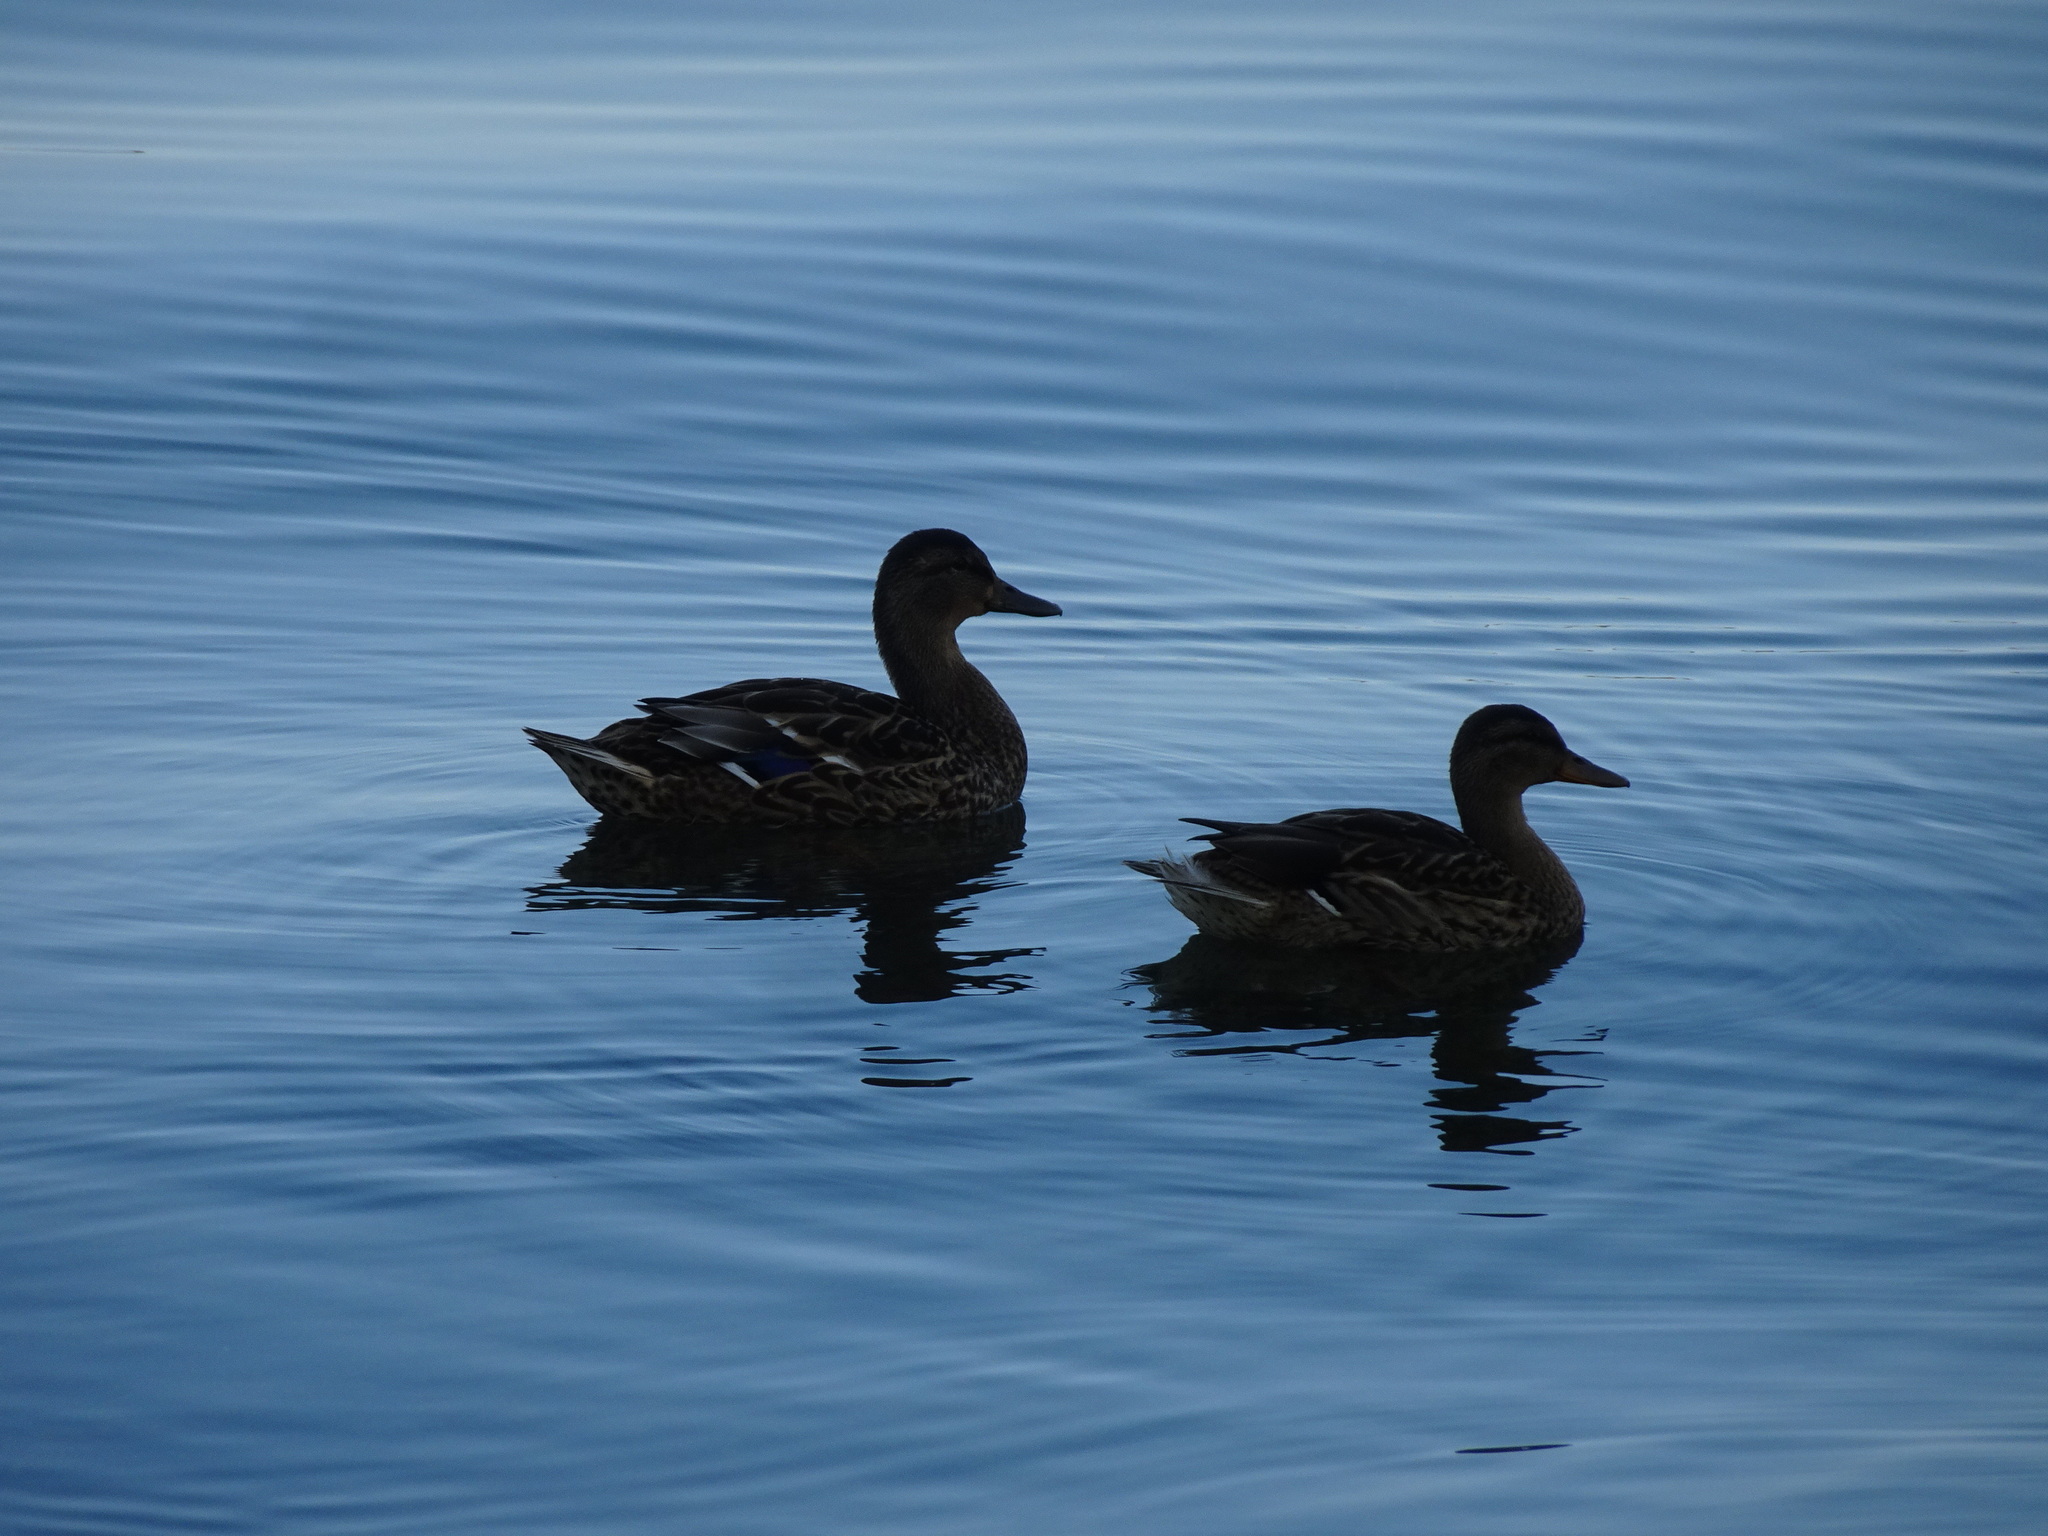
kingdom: Animalia
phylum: Chordata
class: Aves
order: Anseriformes
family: Anatidae
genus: Anas
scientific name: Anas platyrhynchos
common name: Mallard
